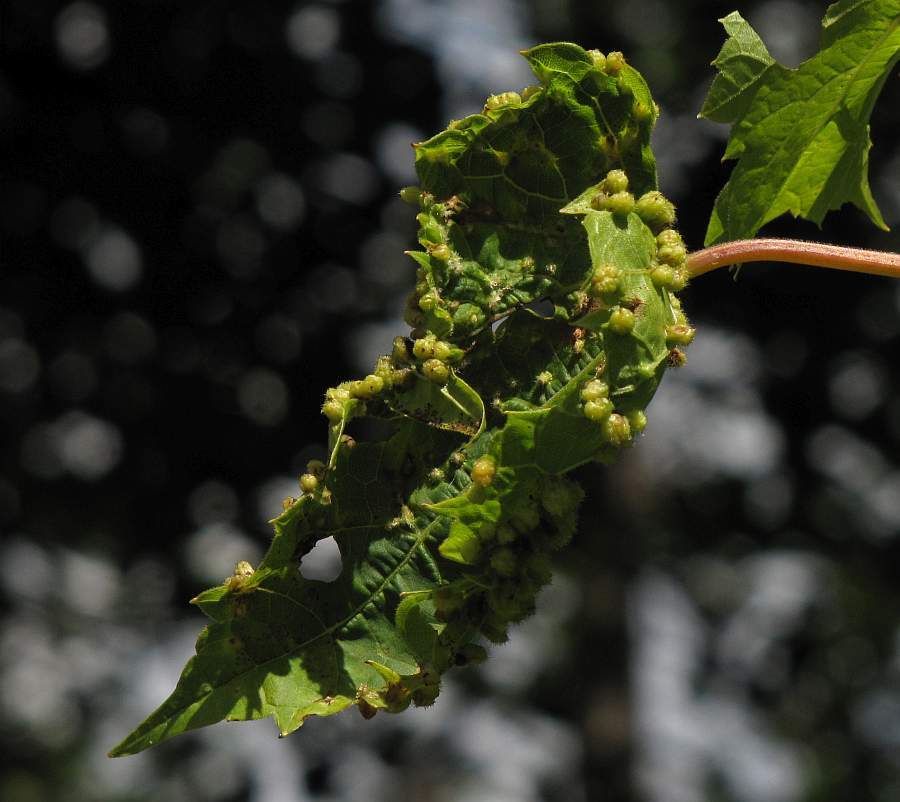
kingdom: Animalia
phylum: Arthropoda
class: Insecta
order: Hemiptera
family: Phylloxeridae
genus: Daktulosphaira
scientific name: Daktulosphaira vitifoliae
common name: Grape phylloxera
